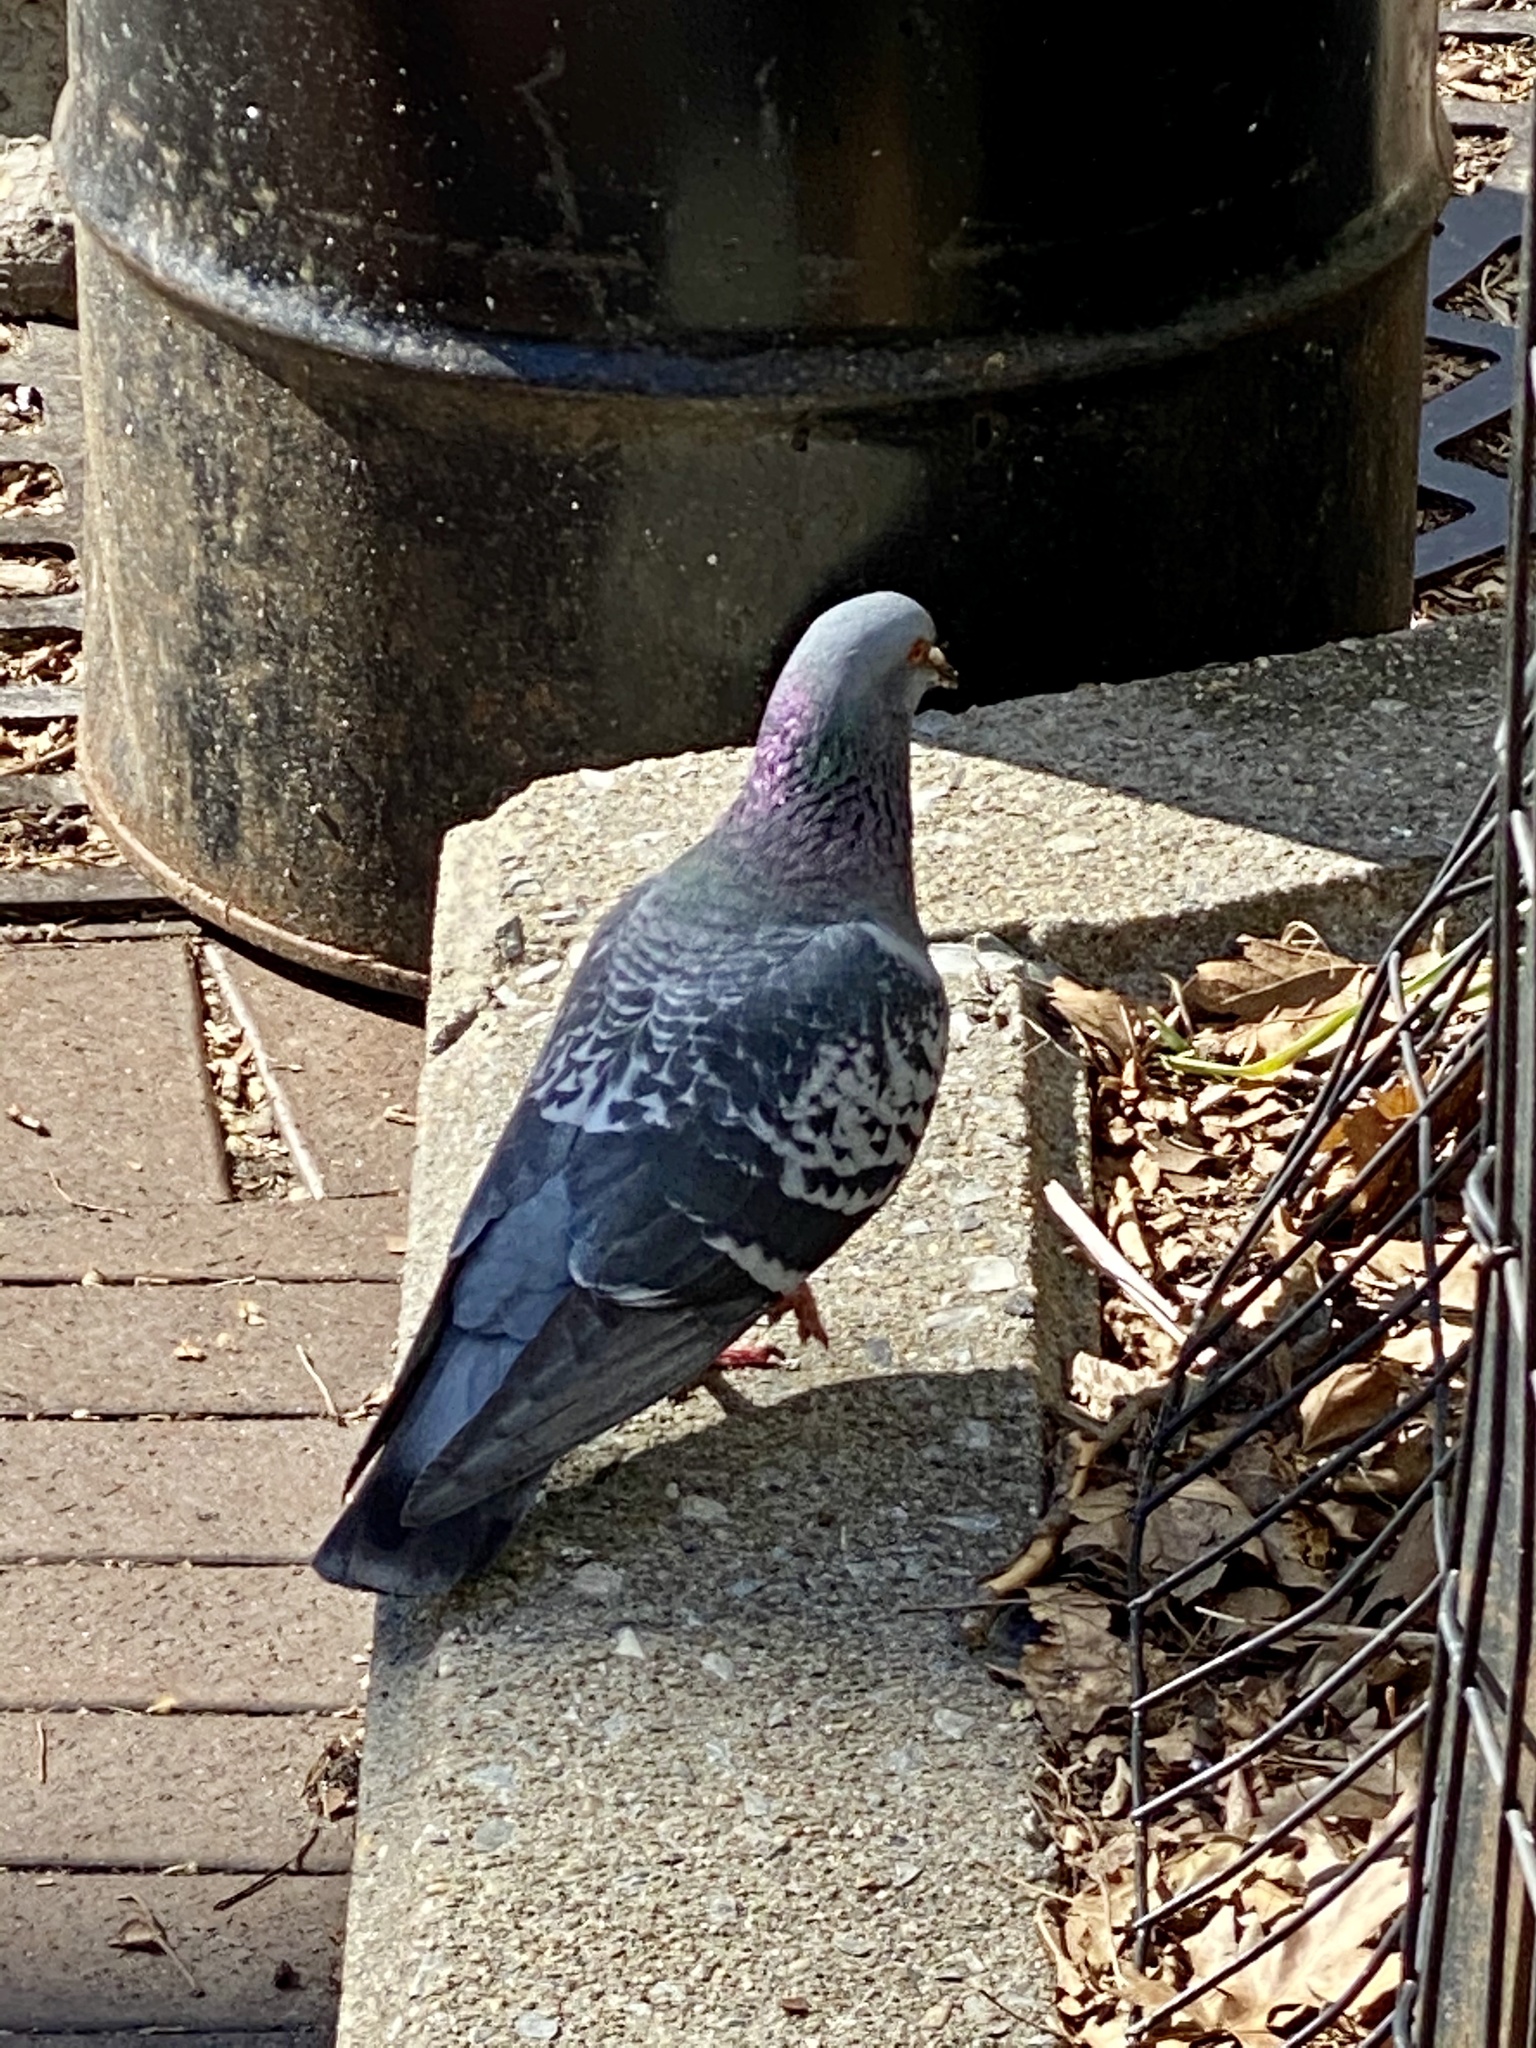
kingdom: Animalia
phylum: Chordata
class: Aves
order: Columbiformes
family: Columbidae
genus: Columba
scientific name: Columba livia
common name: Rock pigeon
